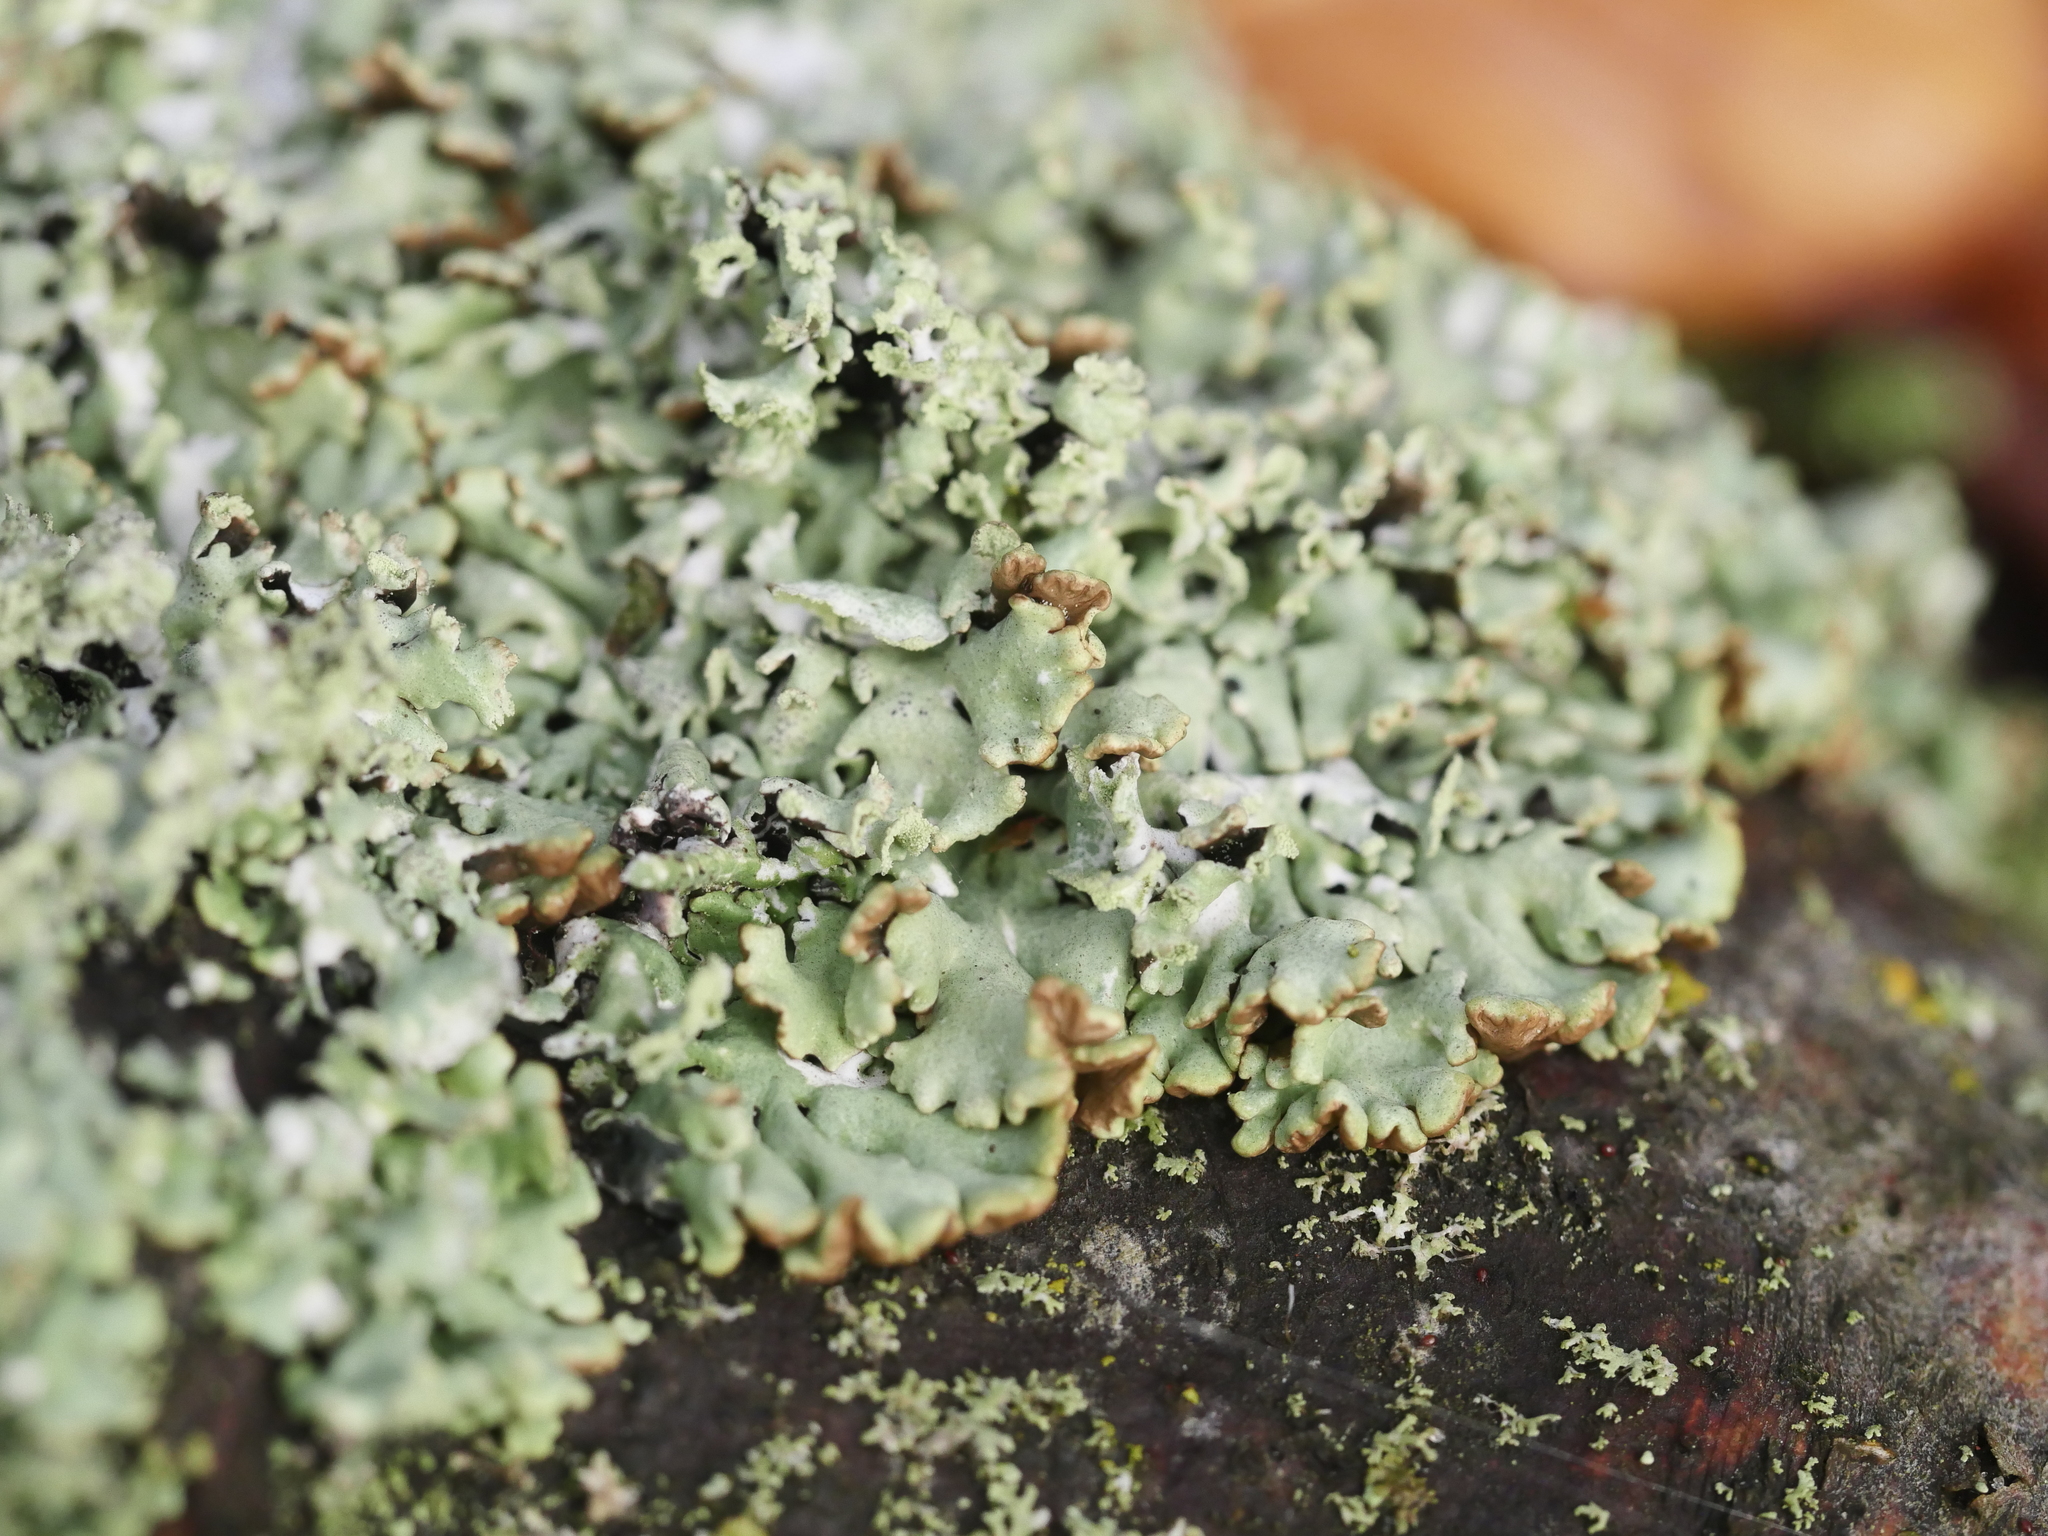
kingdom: Fungi
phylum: Ascomycota
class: Lecanoromycetes
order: Lecanorales
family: Parmeliaceae
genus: Hypogymnia
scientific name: Hypogymnia physodes
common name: Dark crottle
